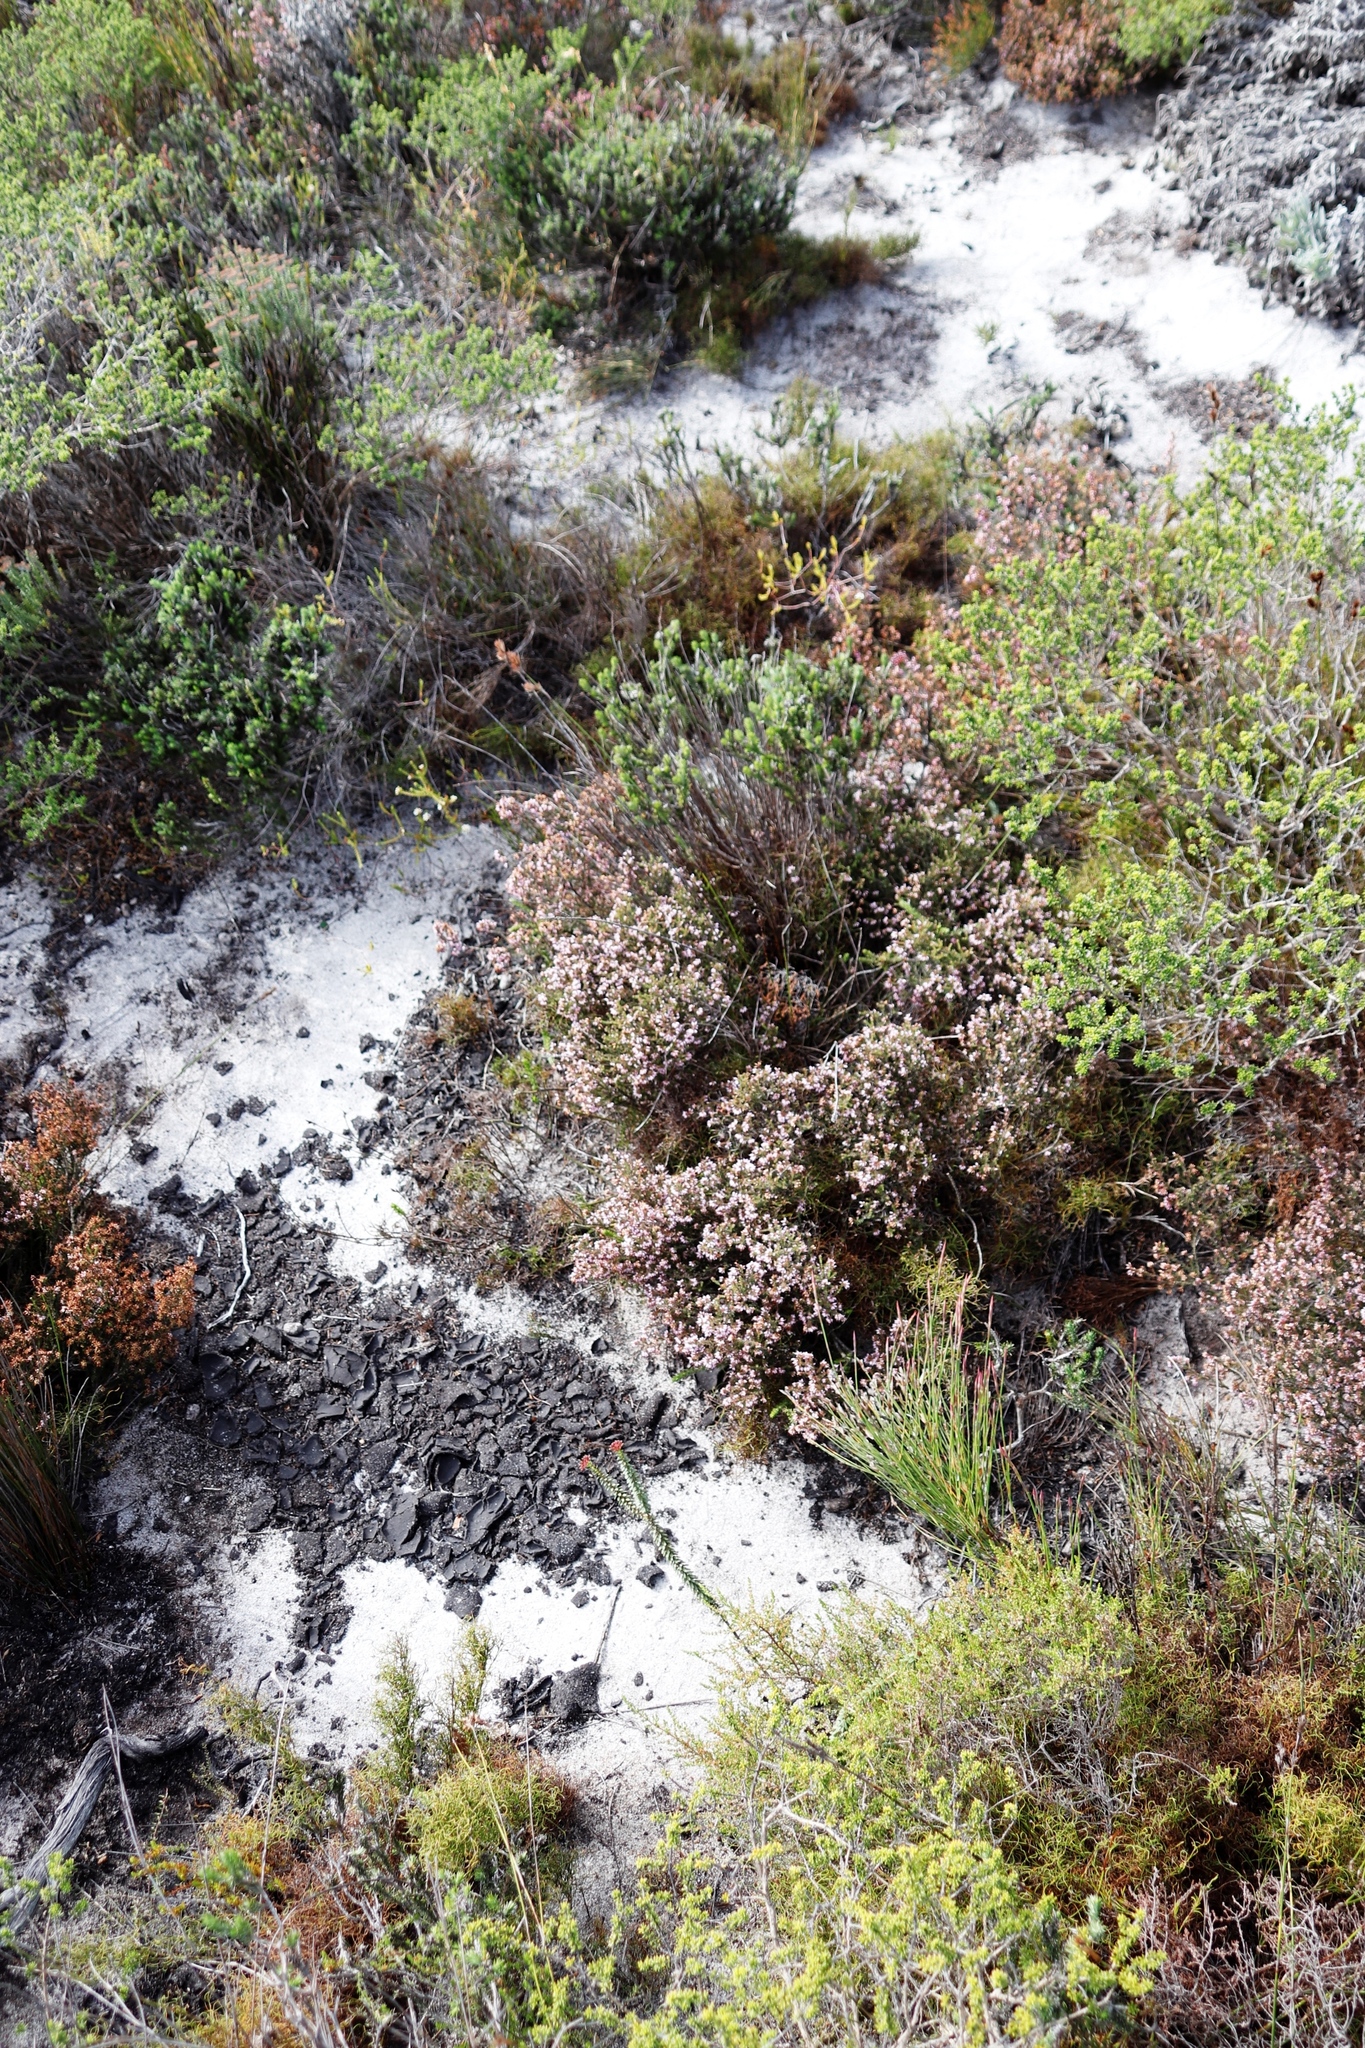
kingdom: Plantae
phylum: Tracheophyta
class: Magnoliopsida
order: Ericales
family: Ericaceae
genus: Erica
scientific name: Erica glabella
